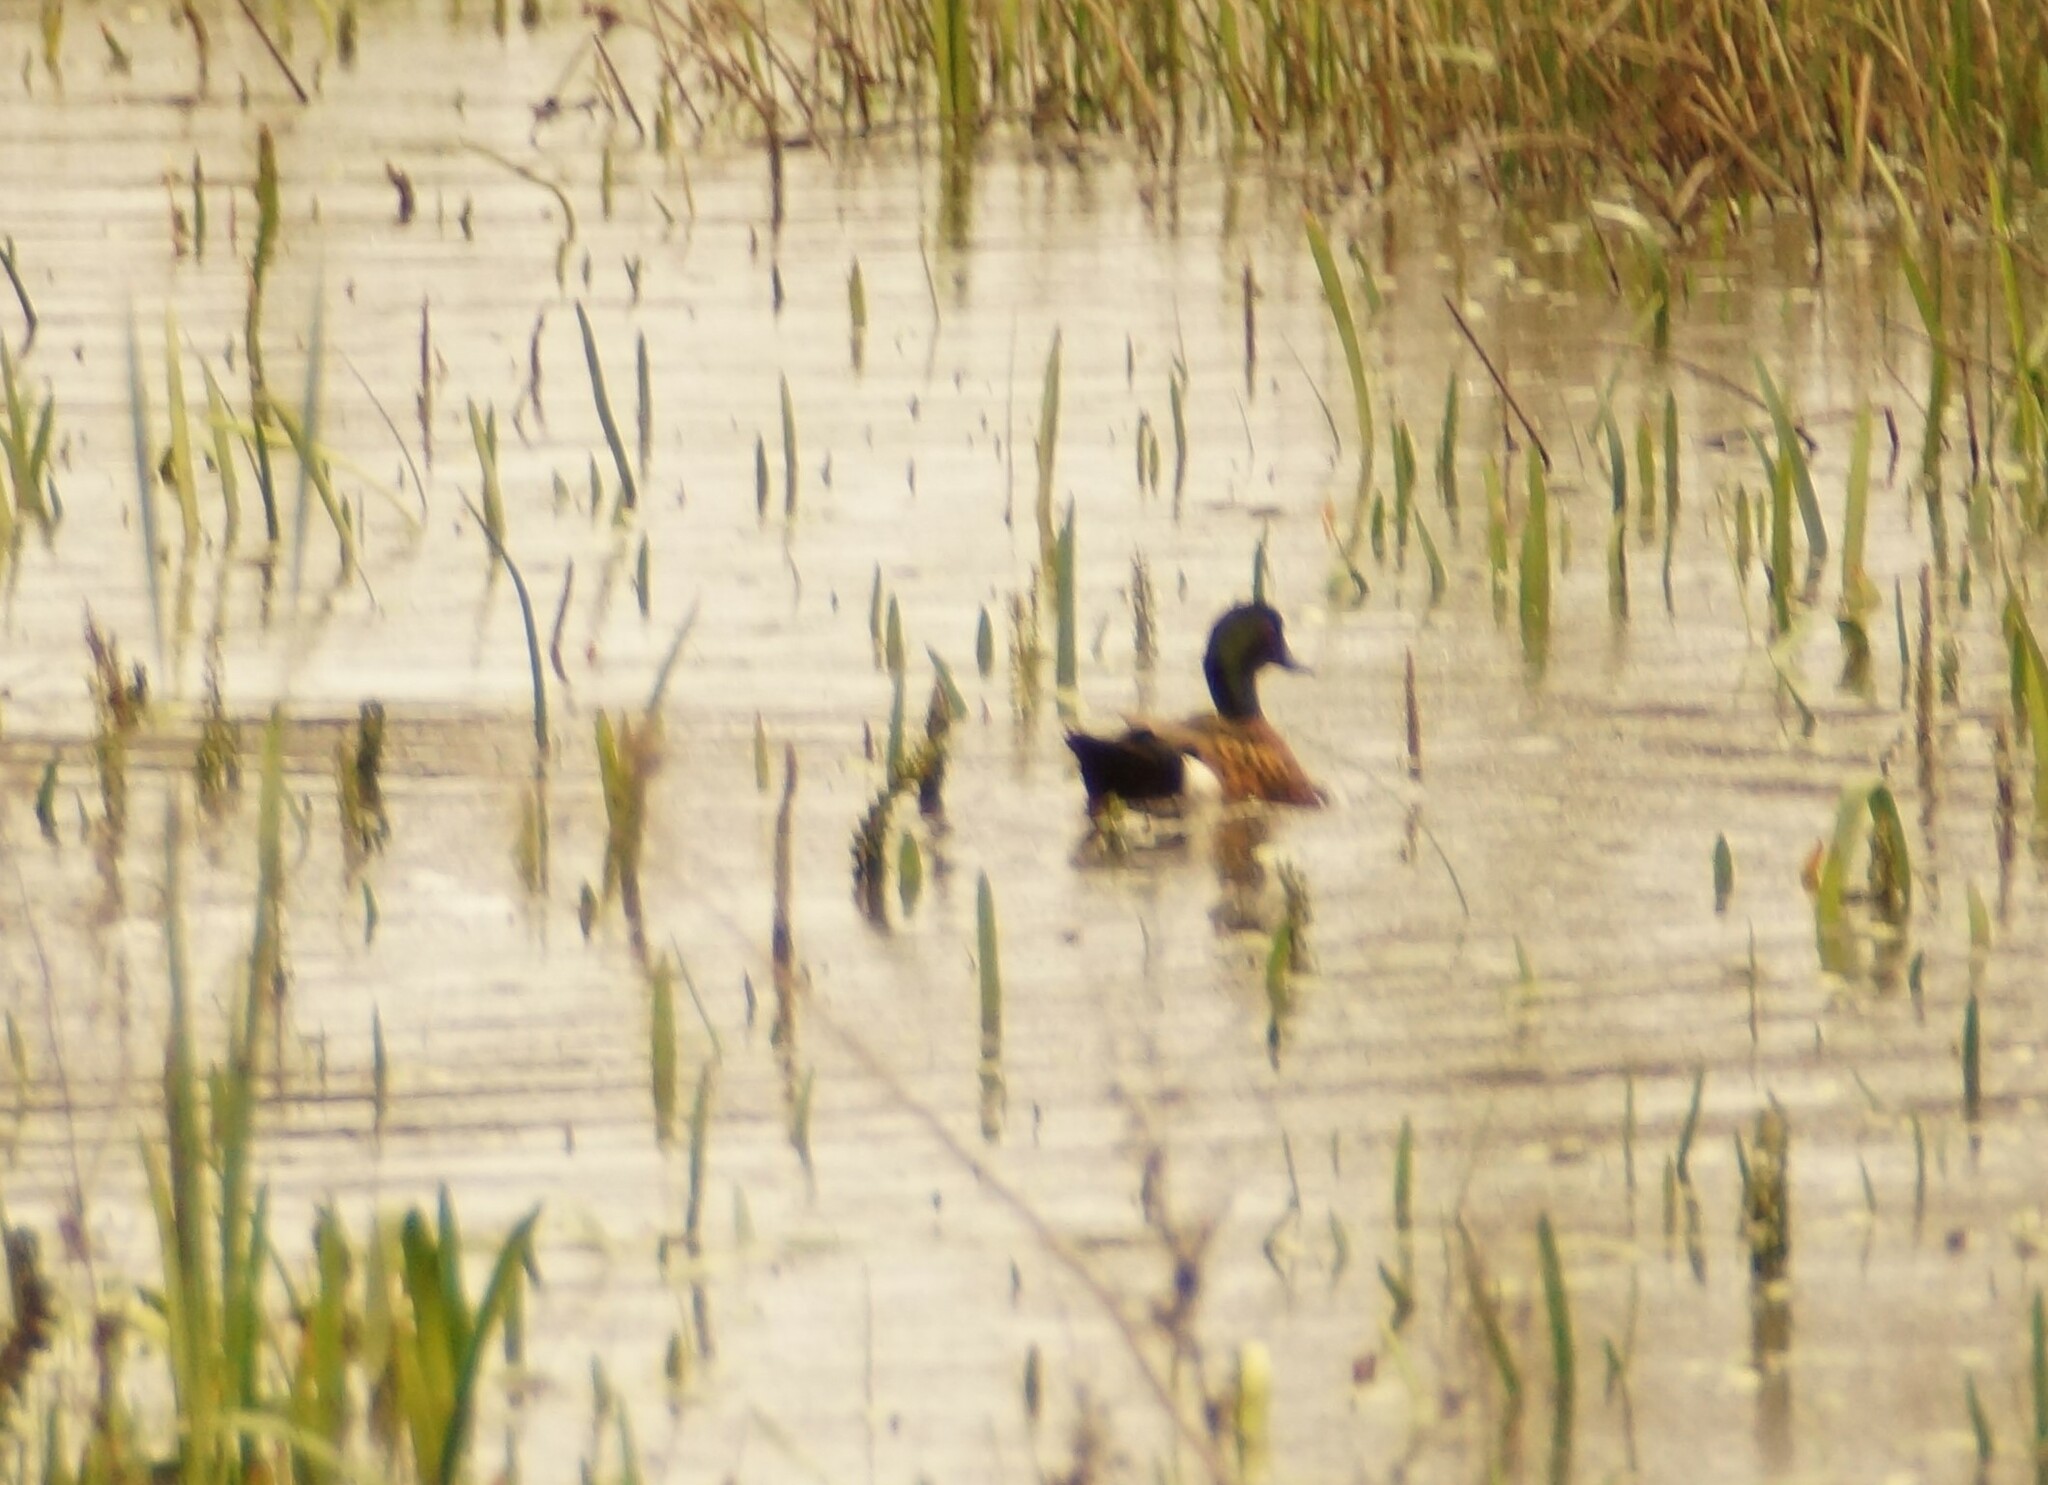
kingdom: Animalia
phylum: Chordata
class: Aves
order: Anseriformes
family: Anatidae
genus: Anas
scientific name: Anas castanea
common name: Chestnut teal
